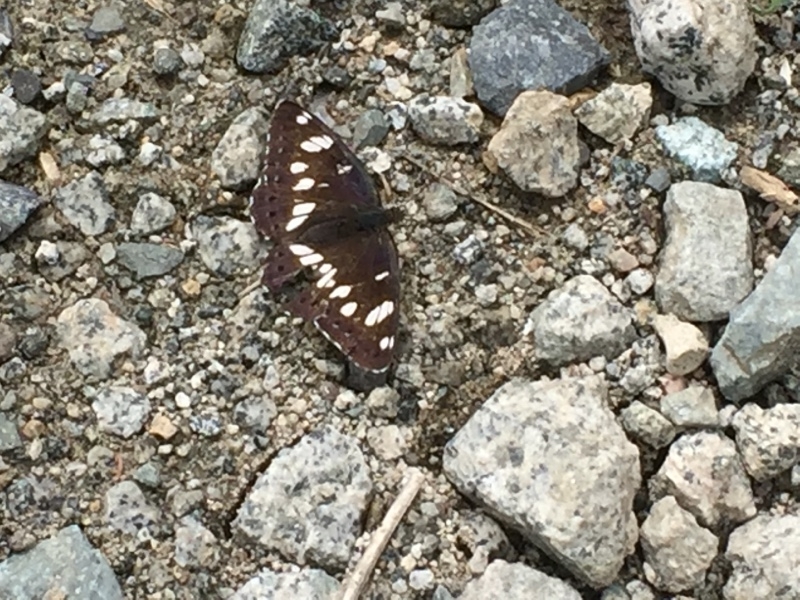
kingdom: Animalia
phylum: Arthropoda
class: Insecta
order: Lepidoptera
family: Nymphalidae
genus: Limenitis
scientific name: Limenitis reducta
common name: Southern white admiral
